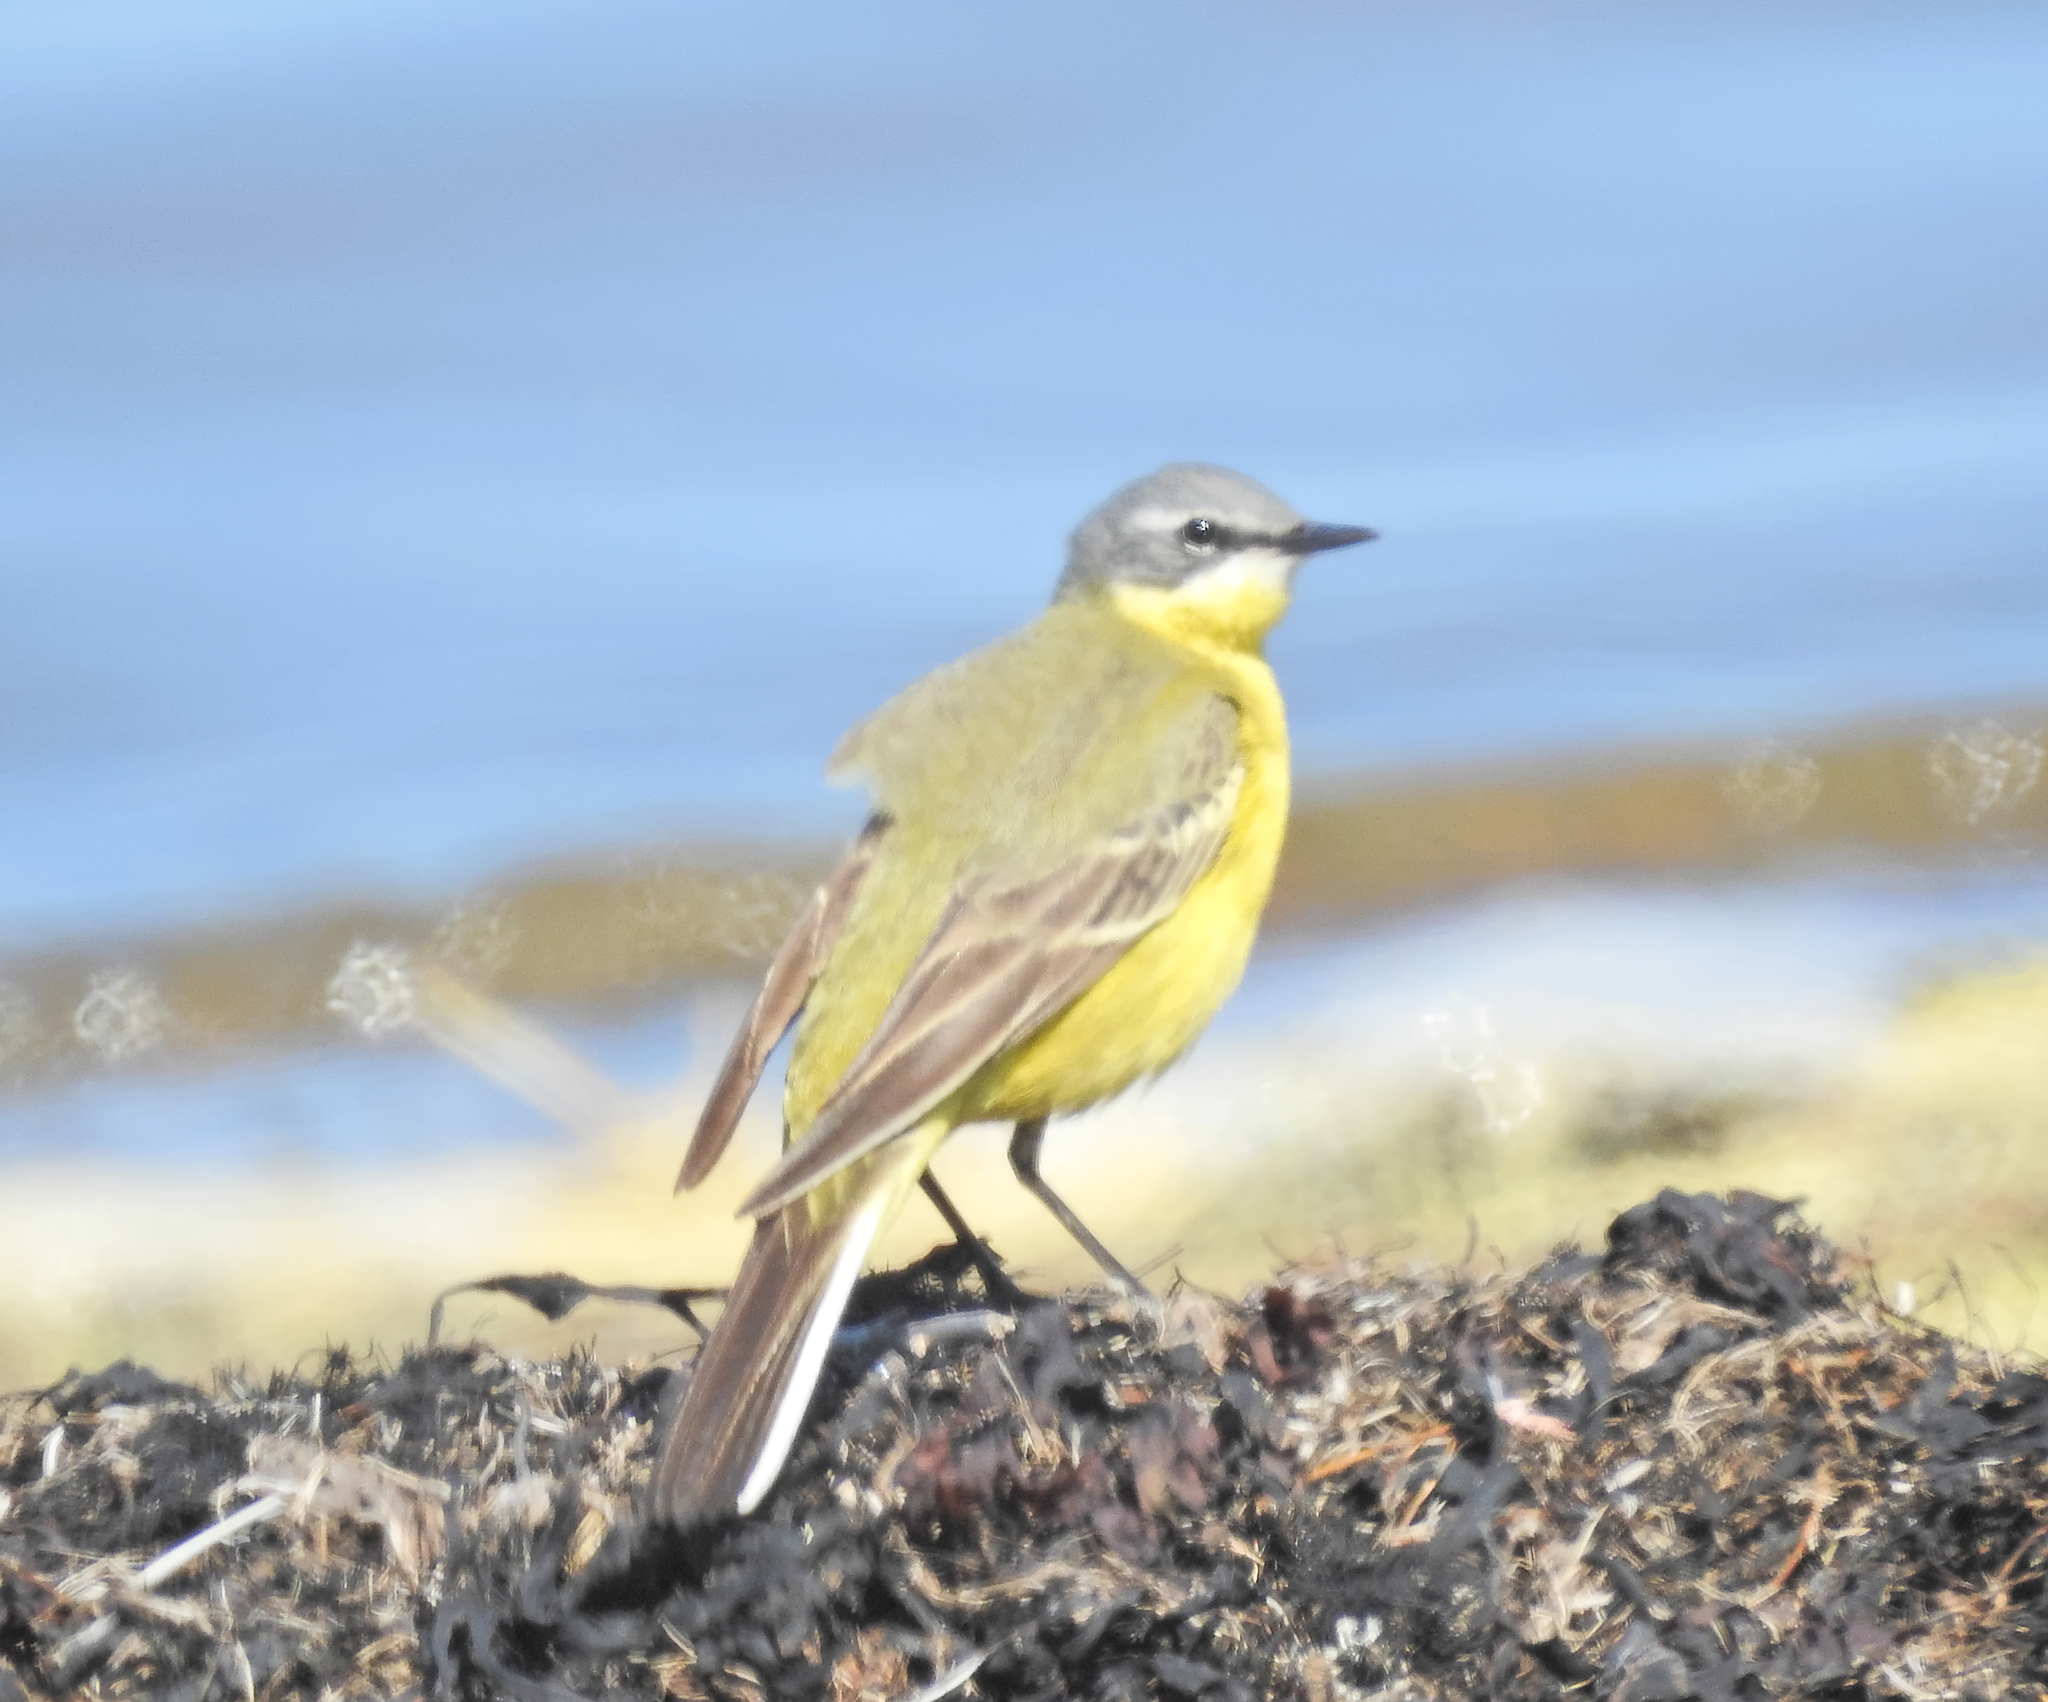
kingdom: Animalia
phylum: Chordata
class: Aves
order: Passeriformes
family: Motacillidae
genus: Motacilla
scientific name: Motacilla flava
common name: Western yellow wagtail
